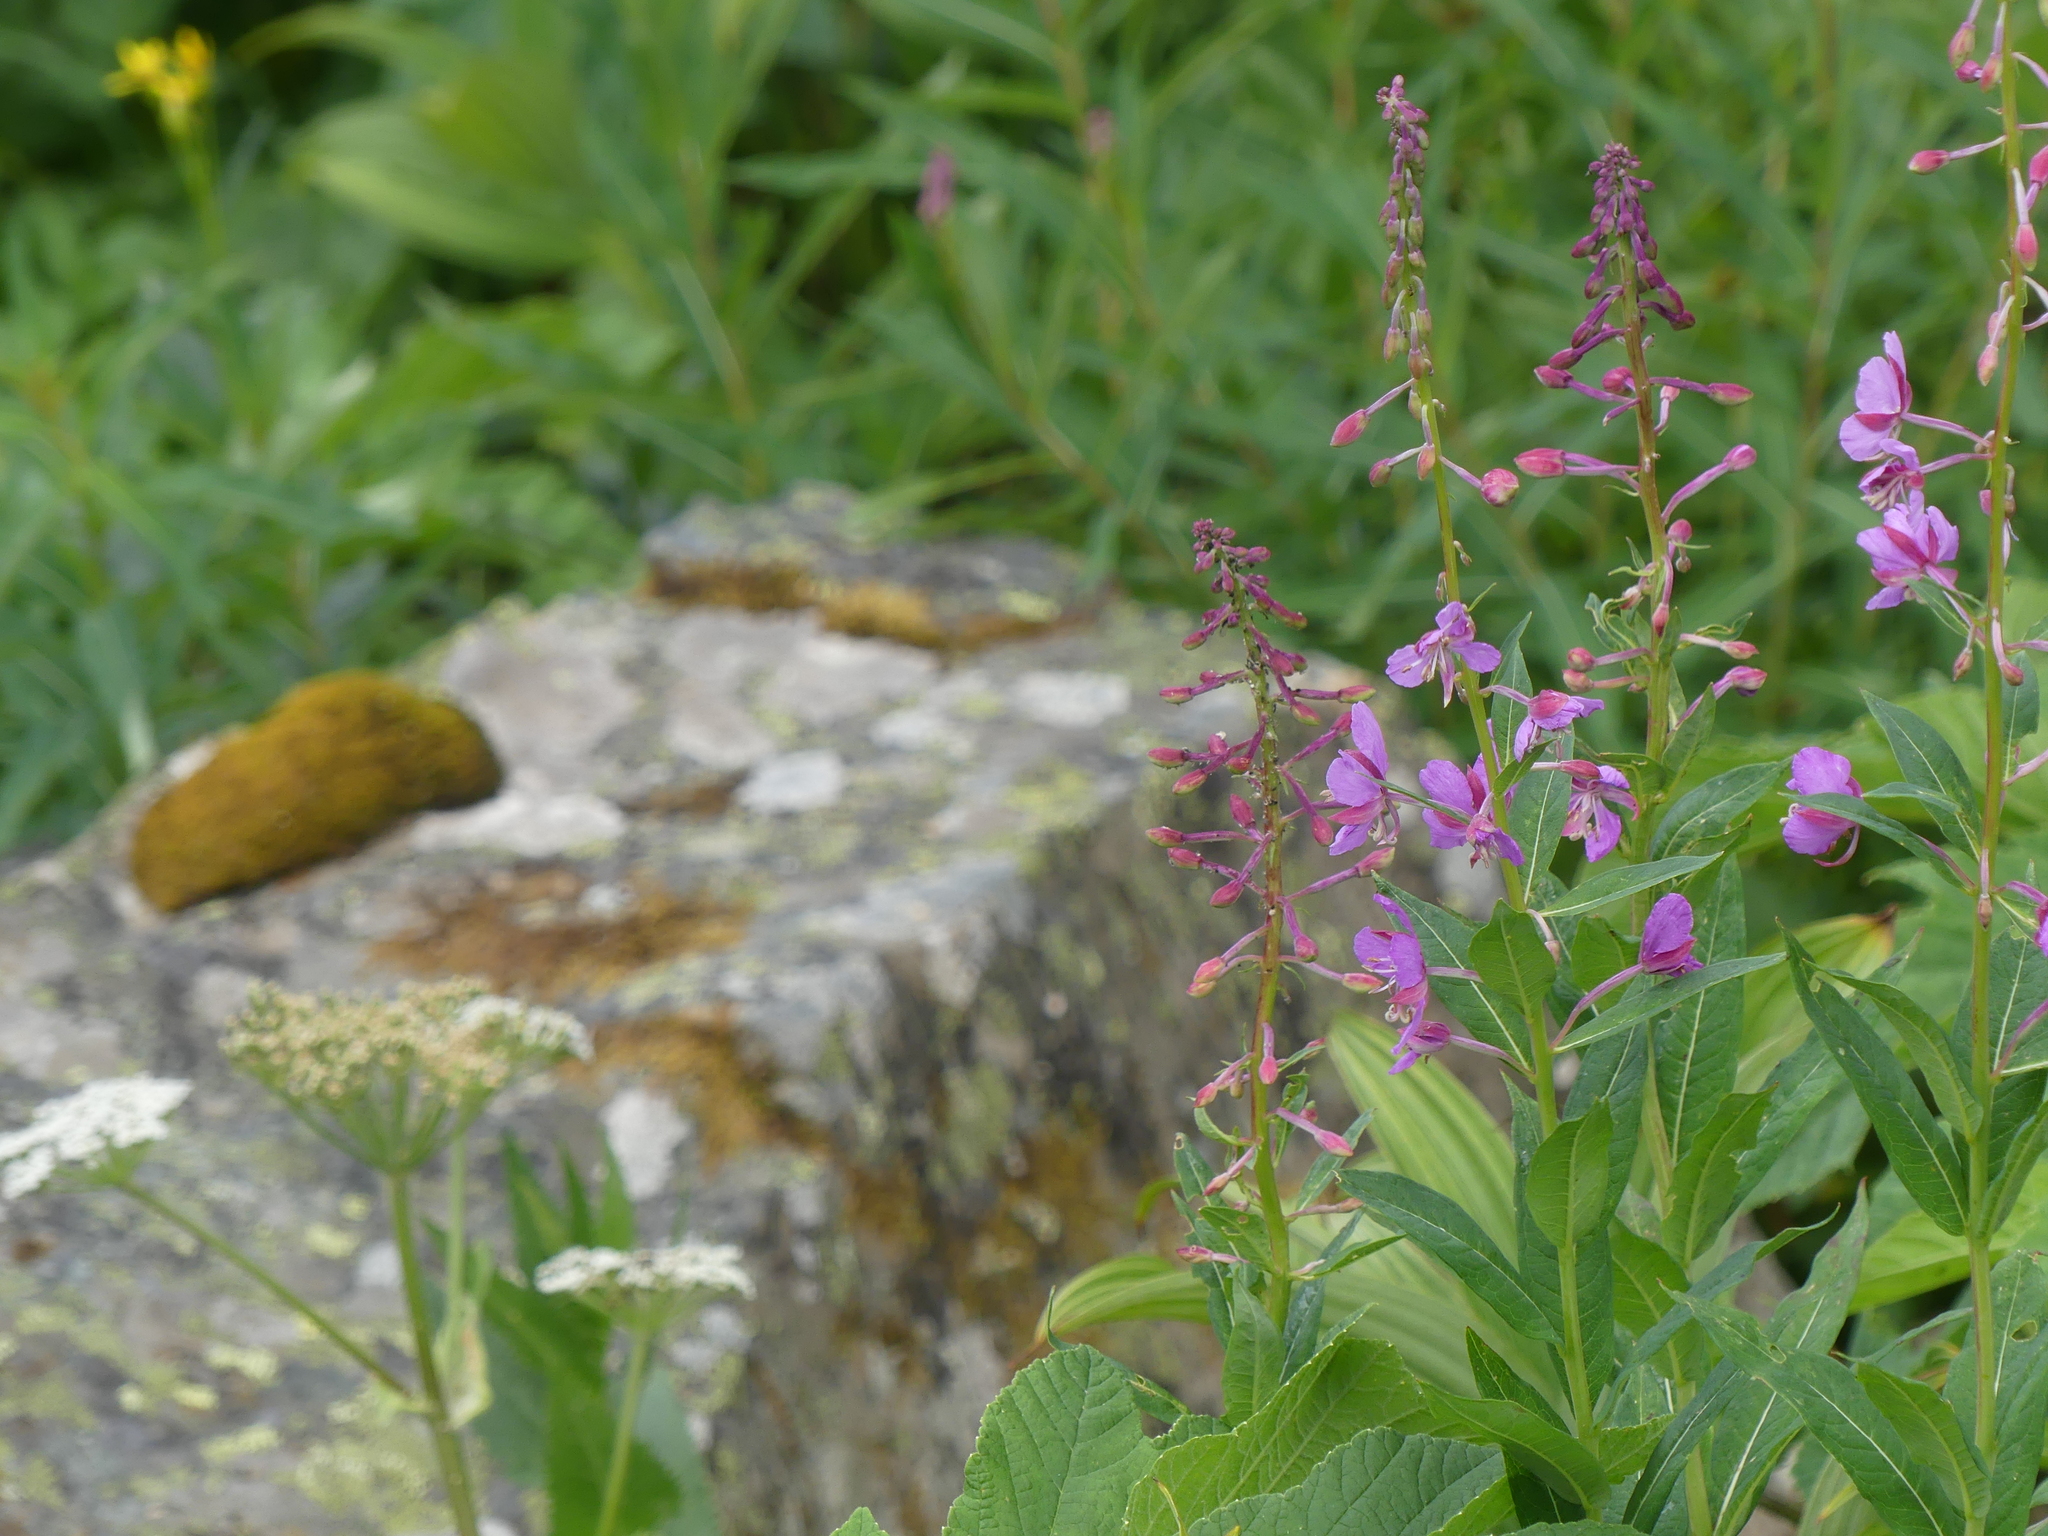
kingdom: Plantae
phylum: Tracheophyta
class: Magnoliopsida
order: Myrtales
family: Onagraceae
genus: Chamaenerion
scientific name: Chamaenerion angustifolium
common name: Fireweed
